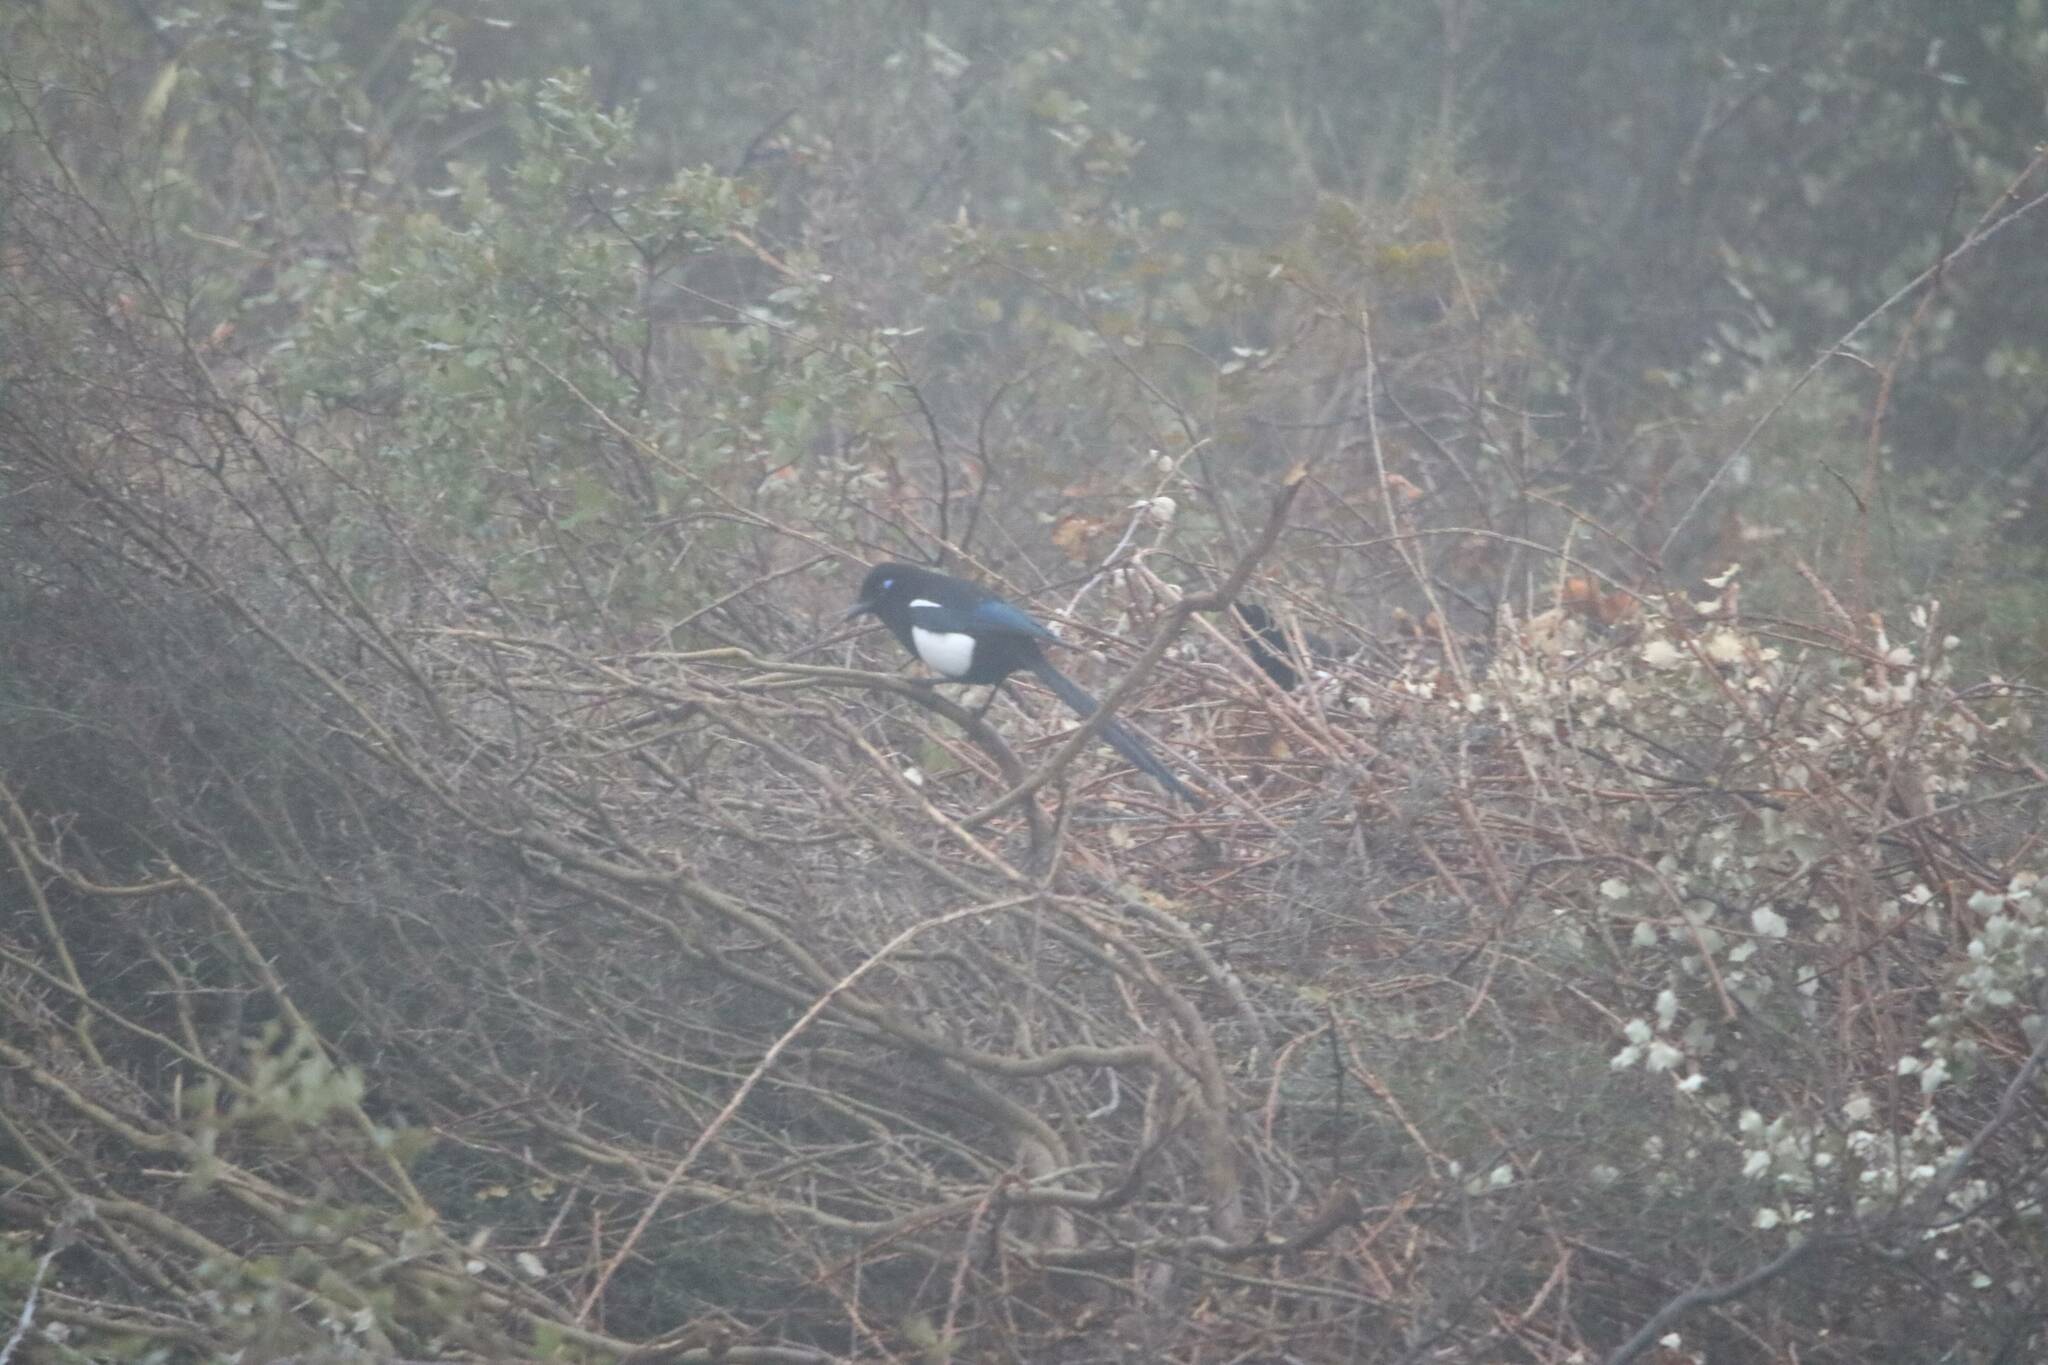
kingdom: Animalia
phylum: Chordata
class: Aves
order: Passeriformes
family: Corvidae
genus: Pica
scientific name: Pica mauritanica
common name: Maghreb magpie
